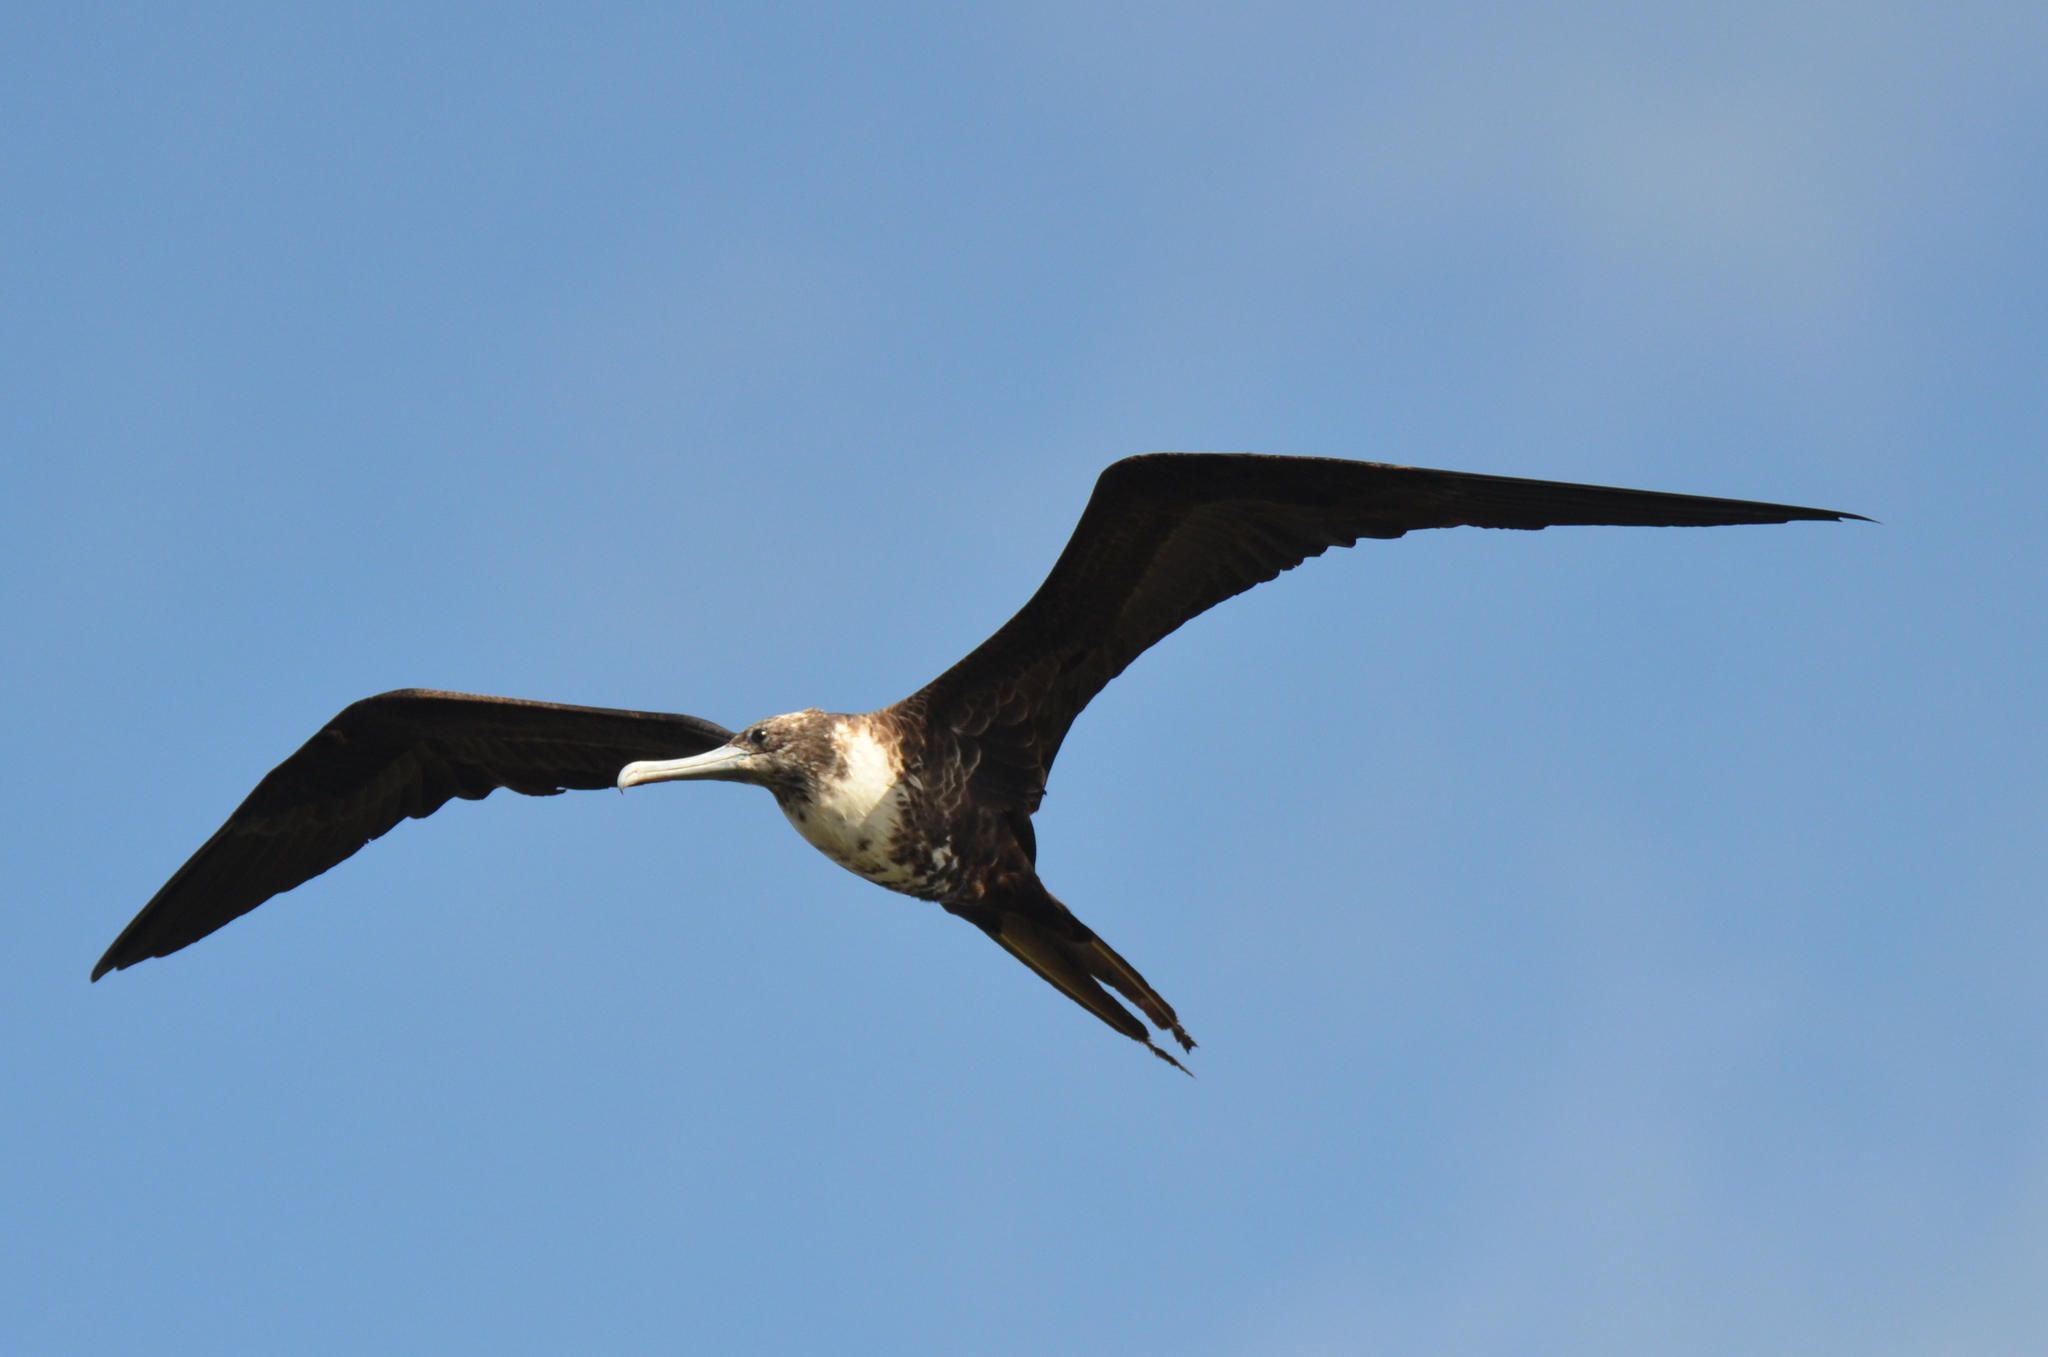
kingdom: Animalia
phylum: Chordata
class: Aves
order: Suliformes
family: Fregatidae
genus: Fregata
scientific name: Fregata magnificens
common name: Magnificent frigatebird
